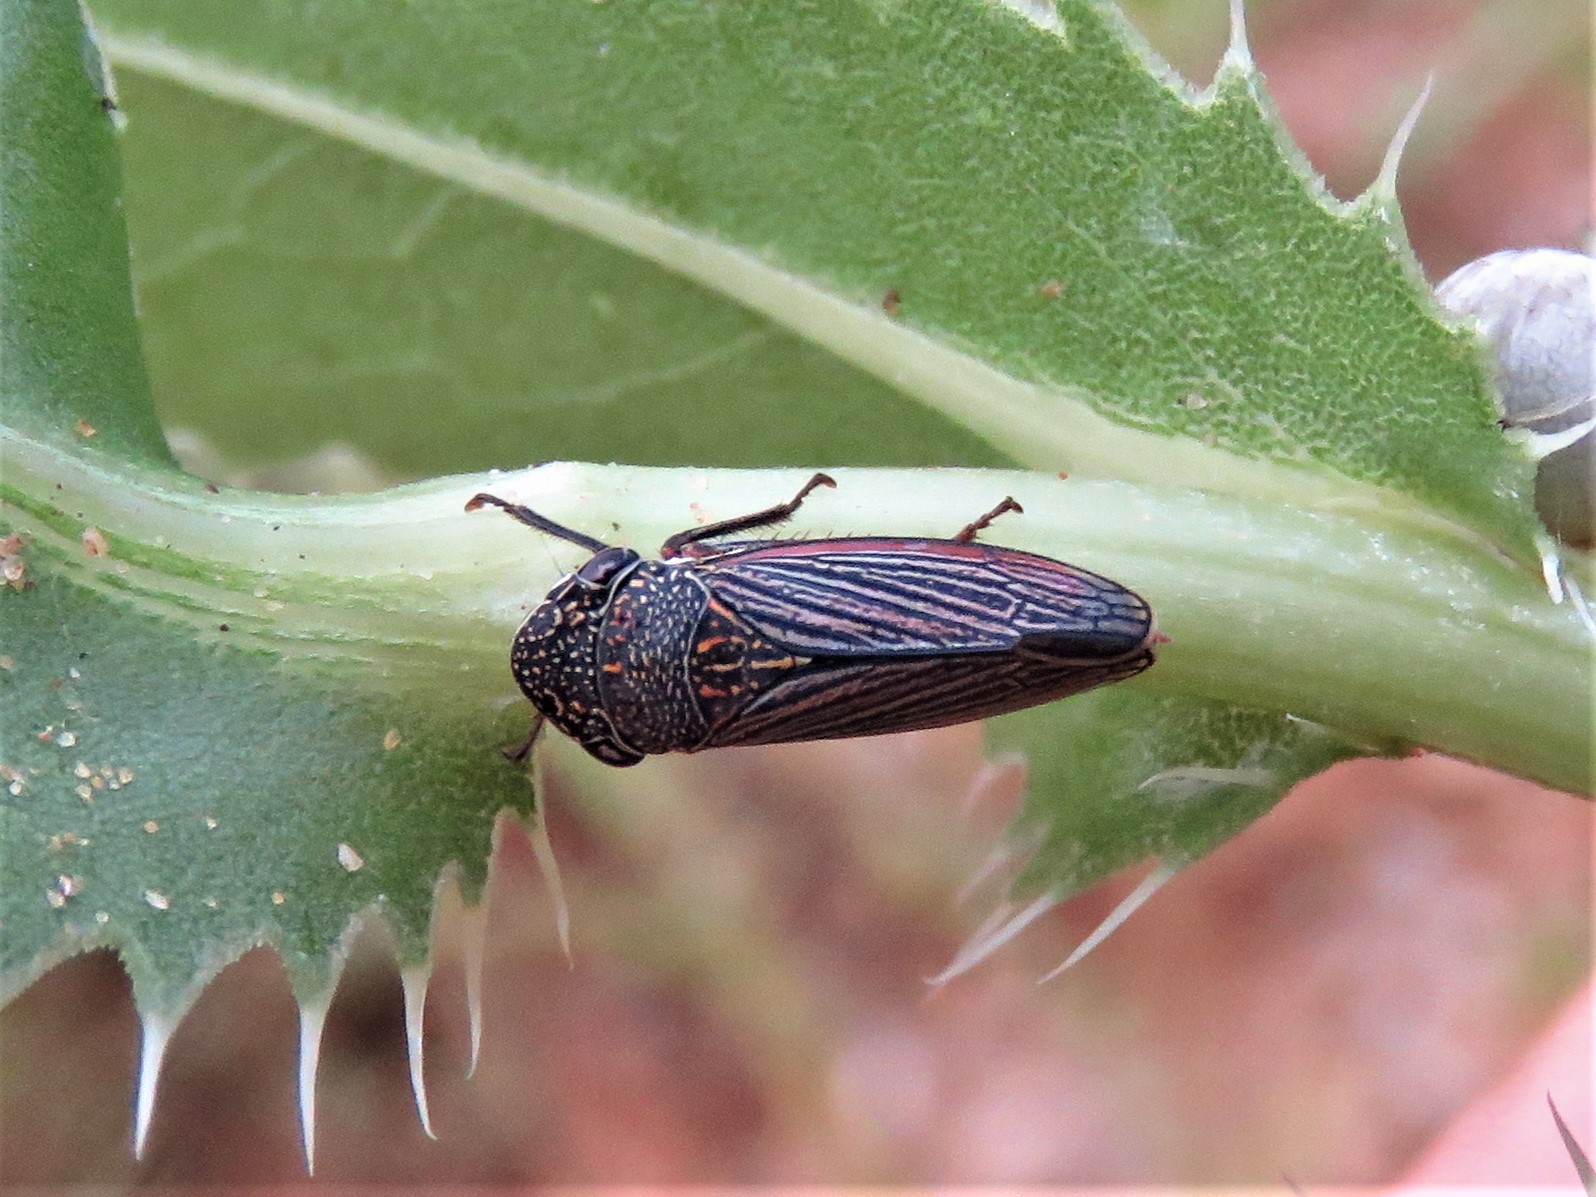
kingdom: Animalia
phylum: Arthropoda
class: Insecta
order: Hemiptera
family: Cicadellidae
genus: Cuerna
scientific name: Cuerna costalis
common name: Lateral-lined sharpshooter
